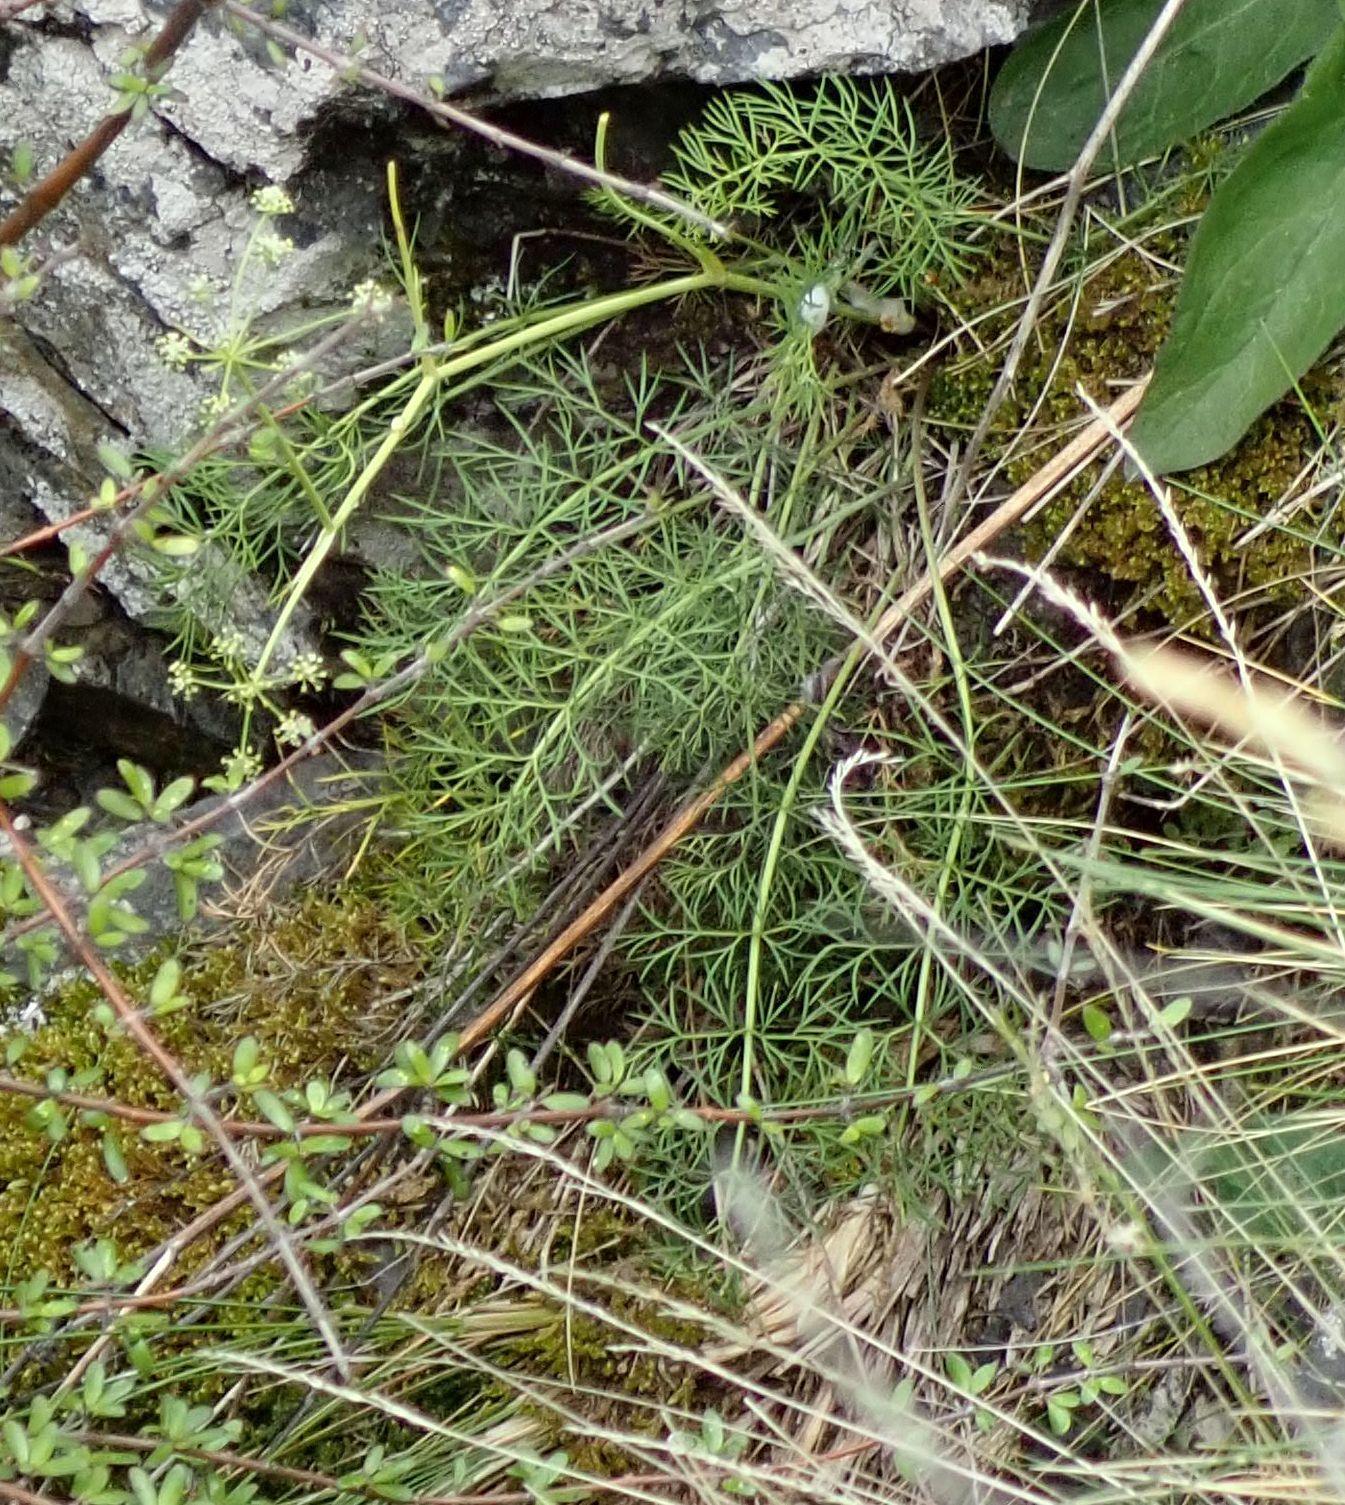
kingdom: Plantae
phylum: Tracheophyta
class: Magnoliopsida
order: Apiales
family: Apiaceae
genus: Anisotome
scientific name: Anisotome brevistylis
